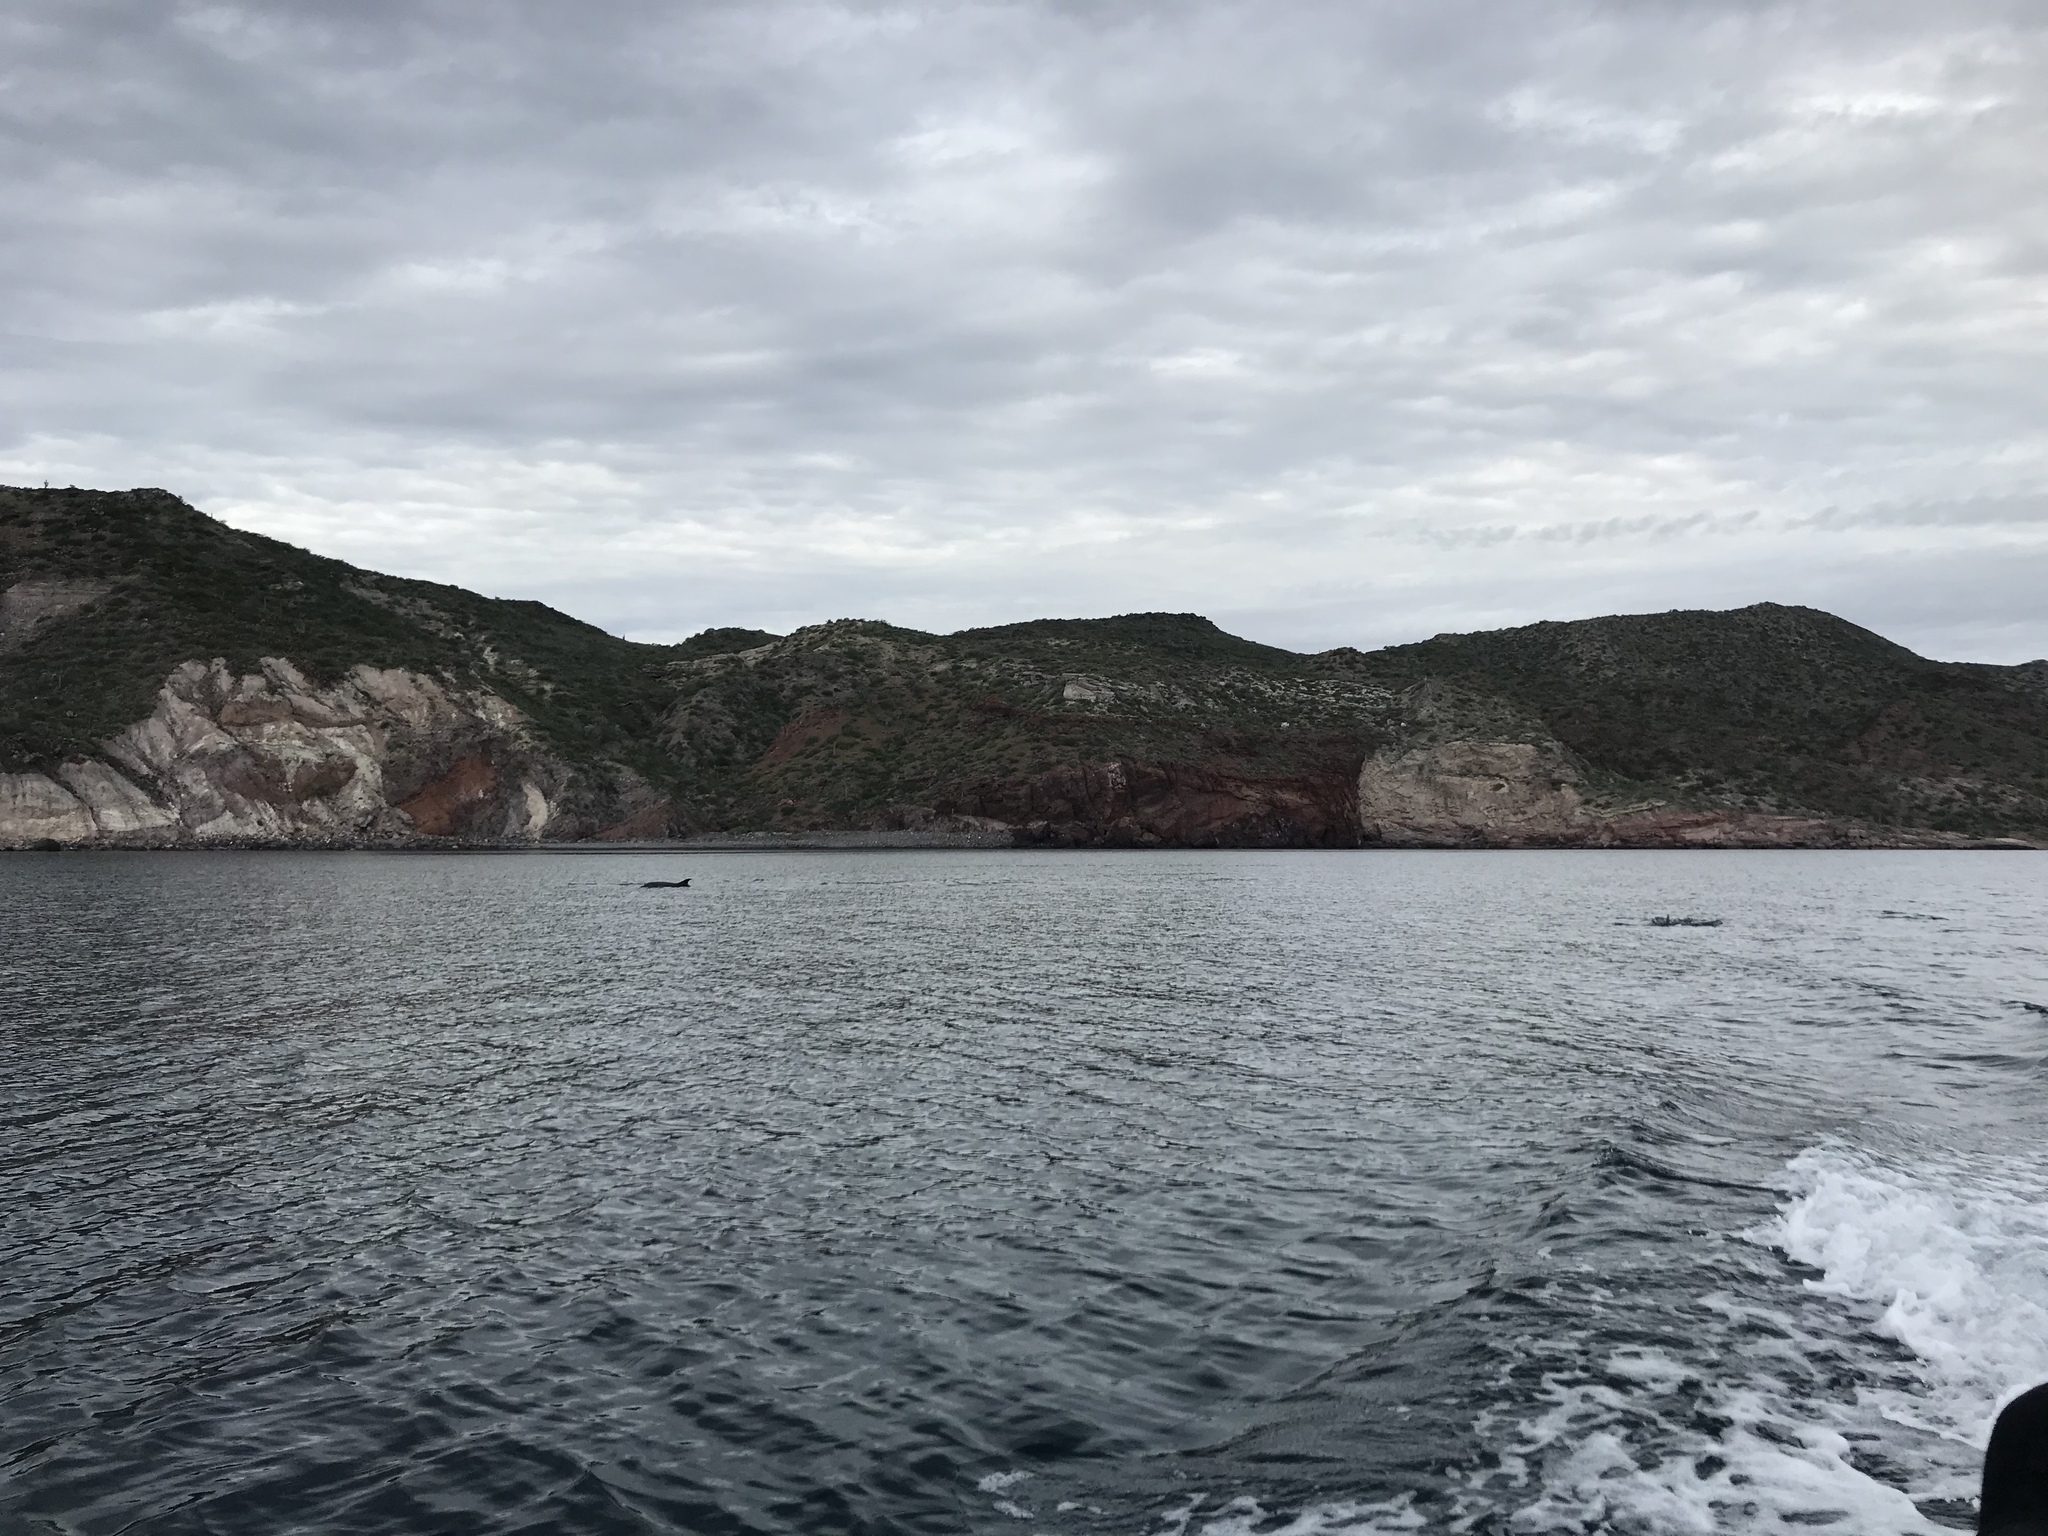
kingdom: Animalia
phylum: Chordata
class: Mammalia
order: Cetacea
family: Delphinidae
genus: Tursiops
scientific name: Tursiops truncatus
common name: Bottlenose dolphin
